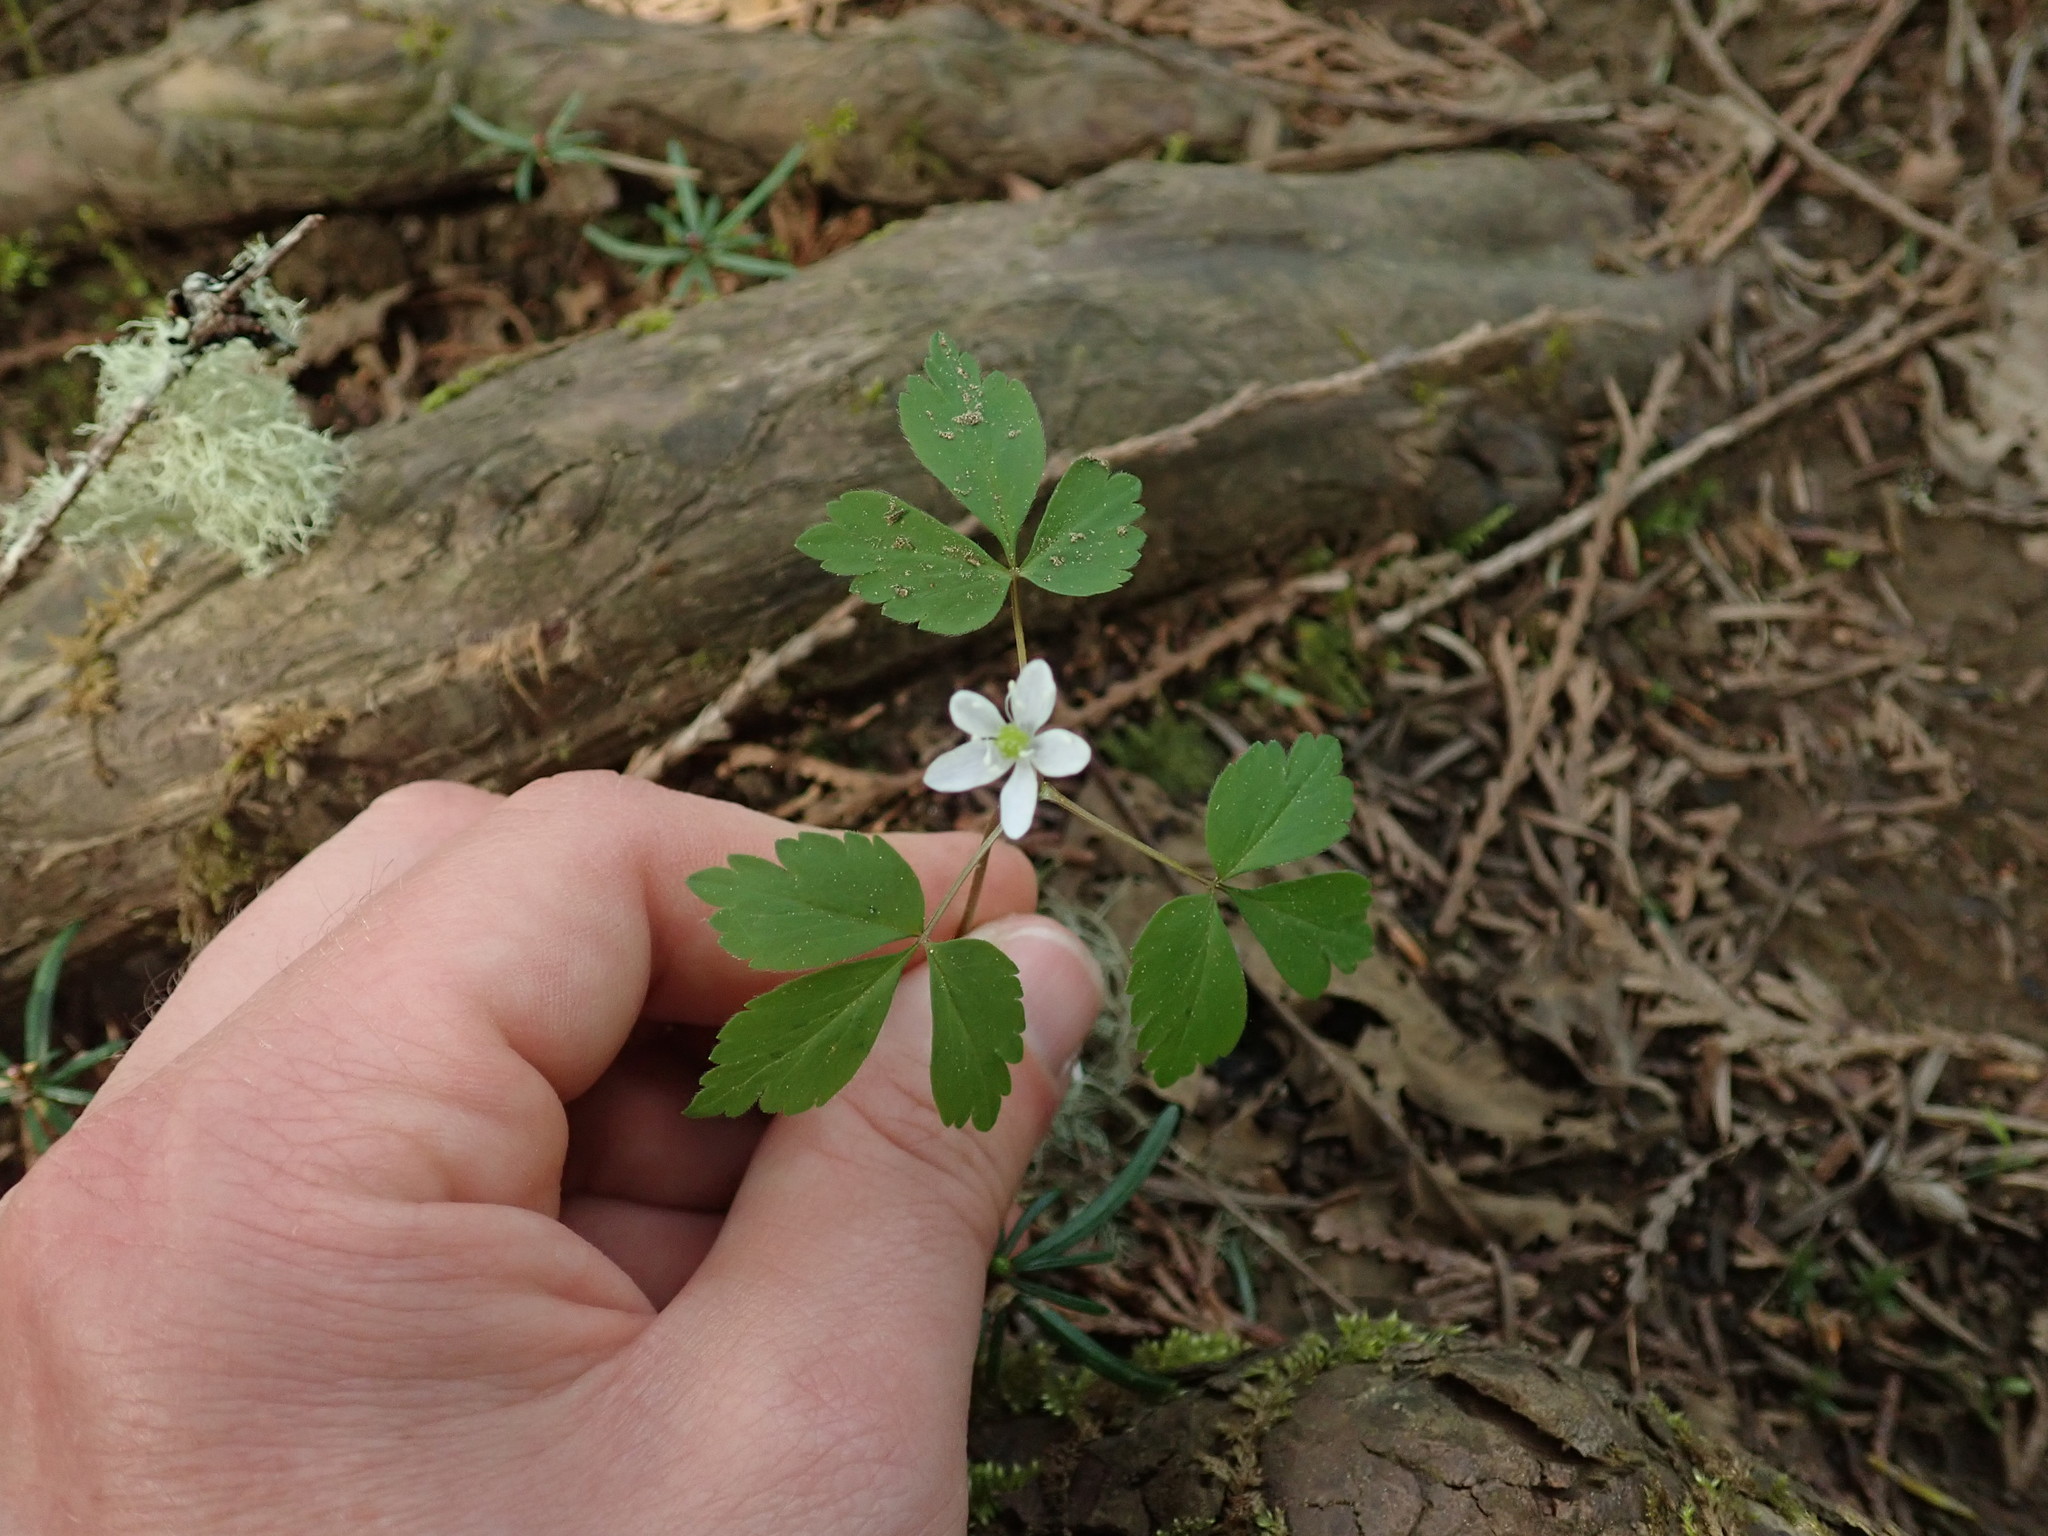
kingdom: Plantae
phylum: Tracheophyta
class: Magnoliopsida
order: Ranunculales
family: Ranunculaceae
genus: Anemone
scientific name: Anemone
